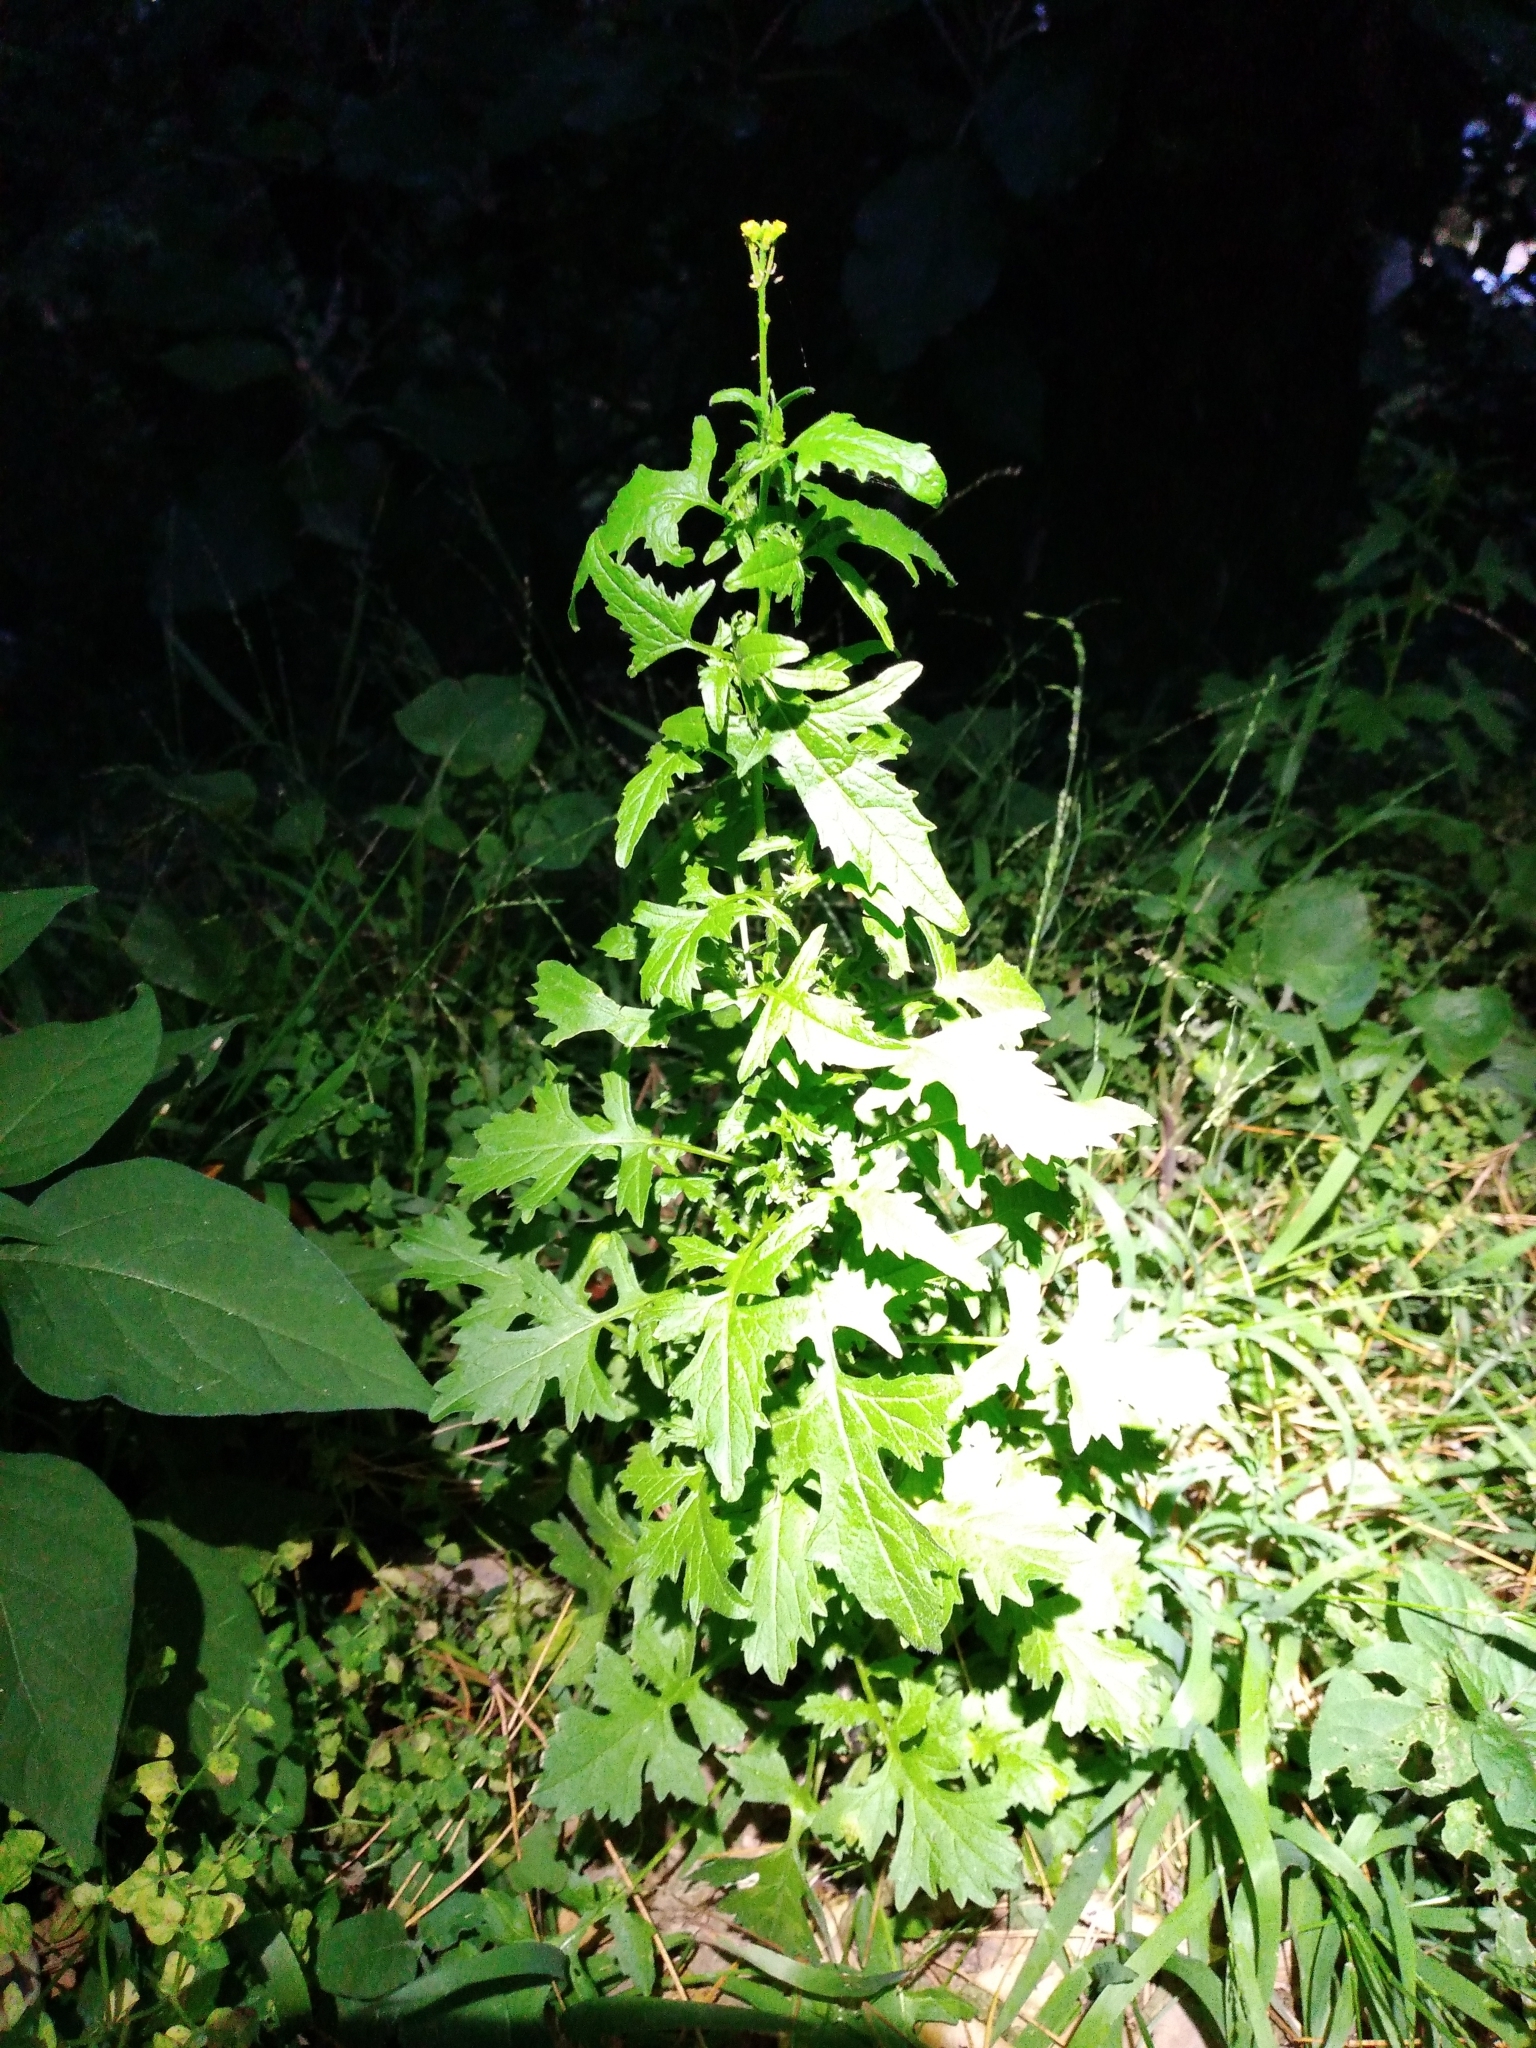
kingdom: Plantae
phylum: Tracheophyta
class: Magnoliopsida
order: Brassicales
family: Brassicaceae
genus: Sisymbrium
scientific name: Sisymbrium officinale
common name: Hedge mustard
